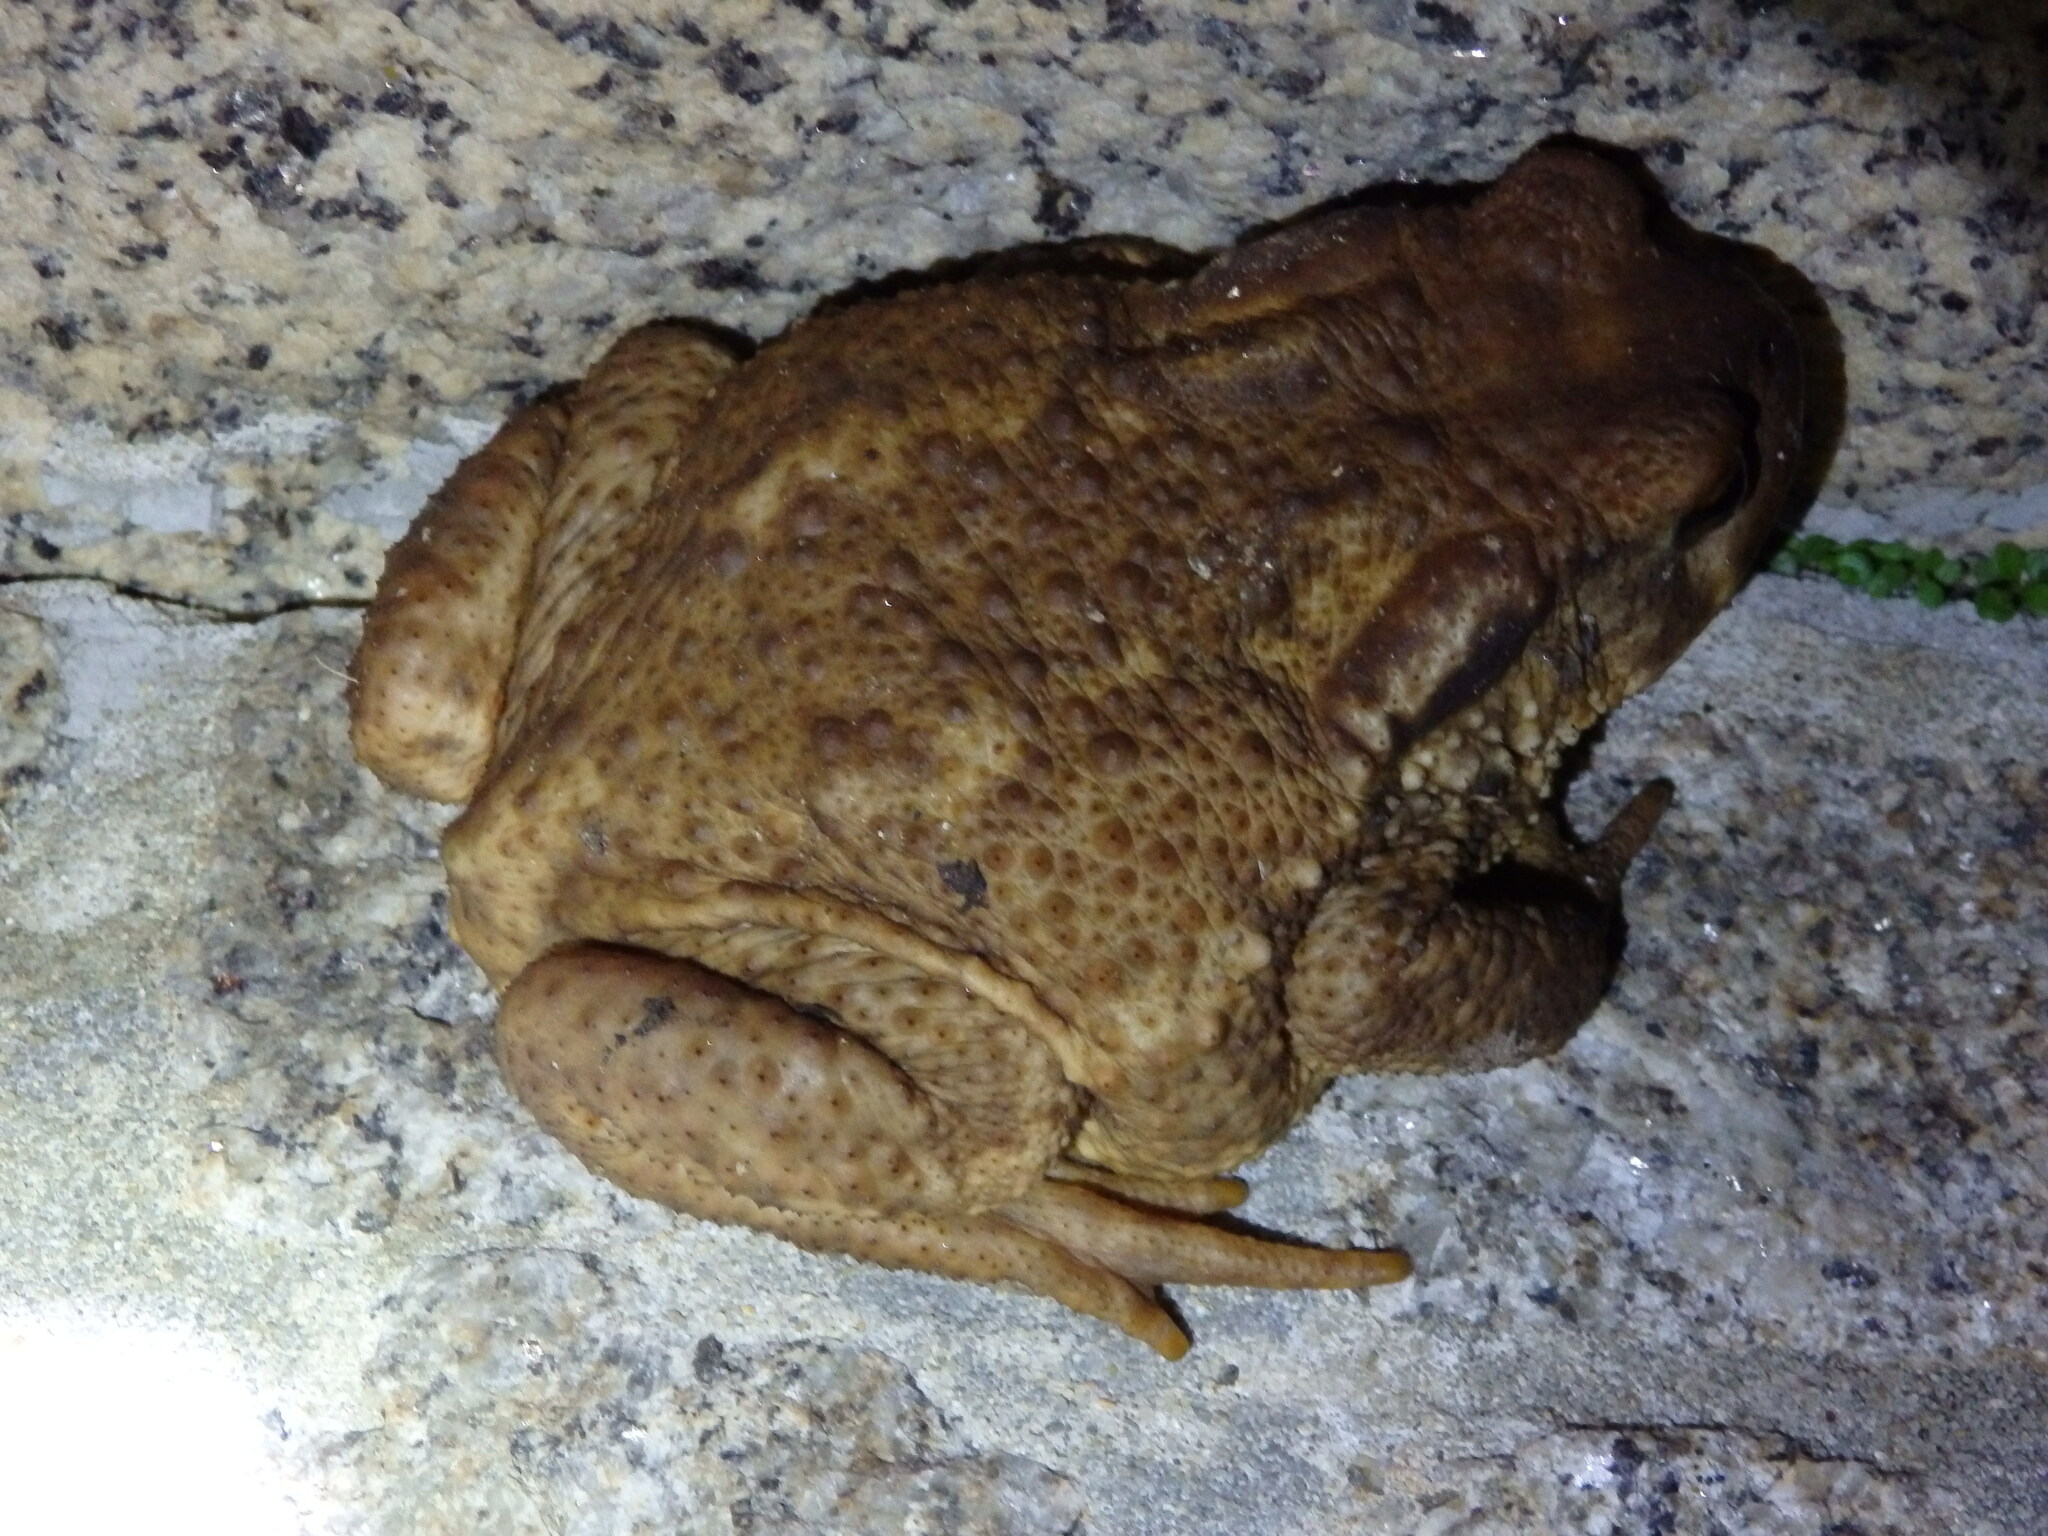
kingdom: Animalia
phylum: Chordata
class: Amphibia
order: Anura
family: Bufonidae
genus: Bufo
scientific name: Bufo spinosus
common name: Western common toad
